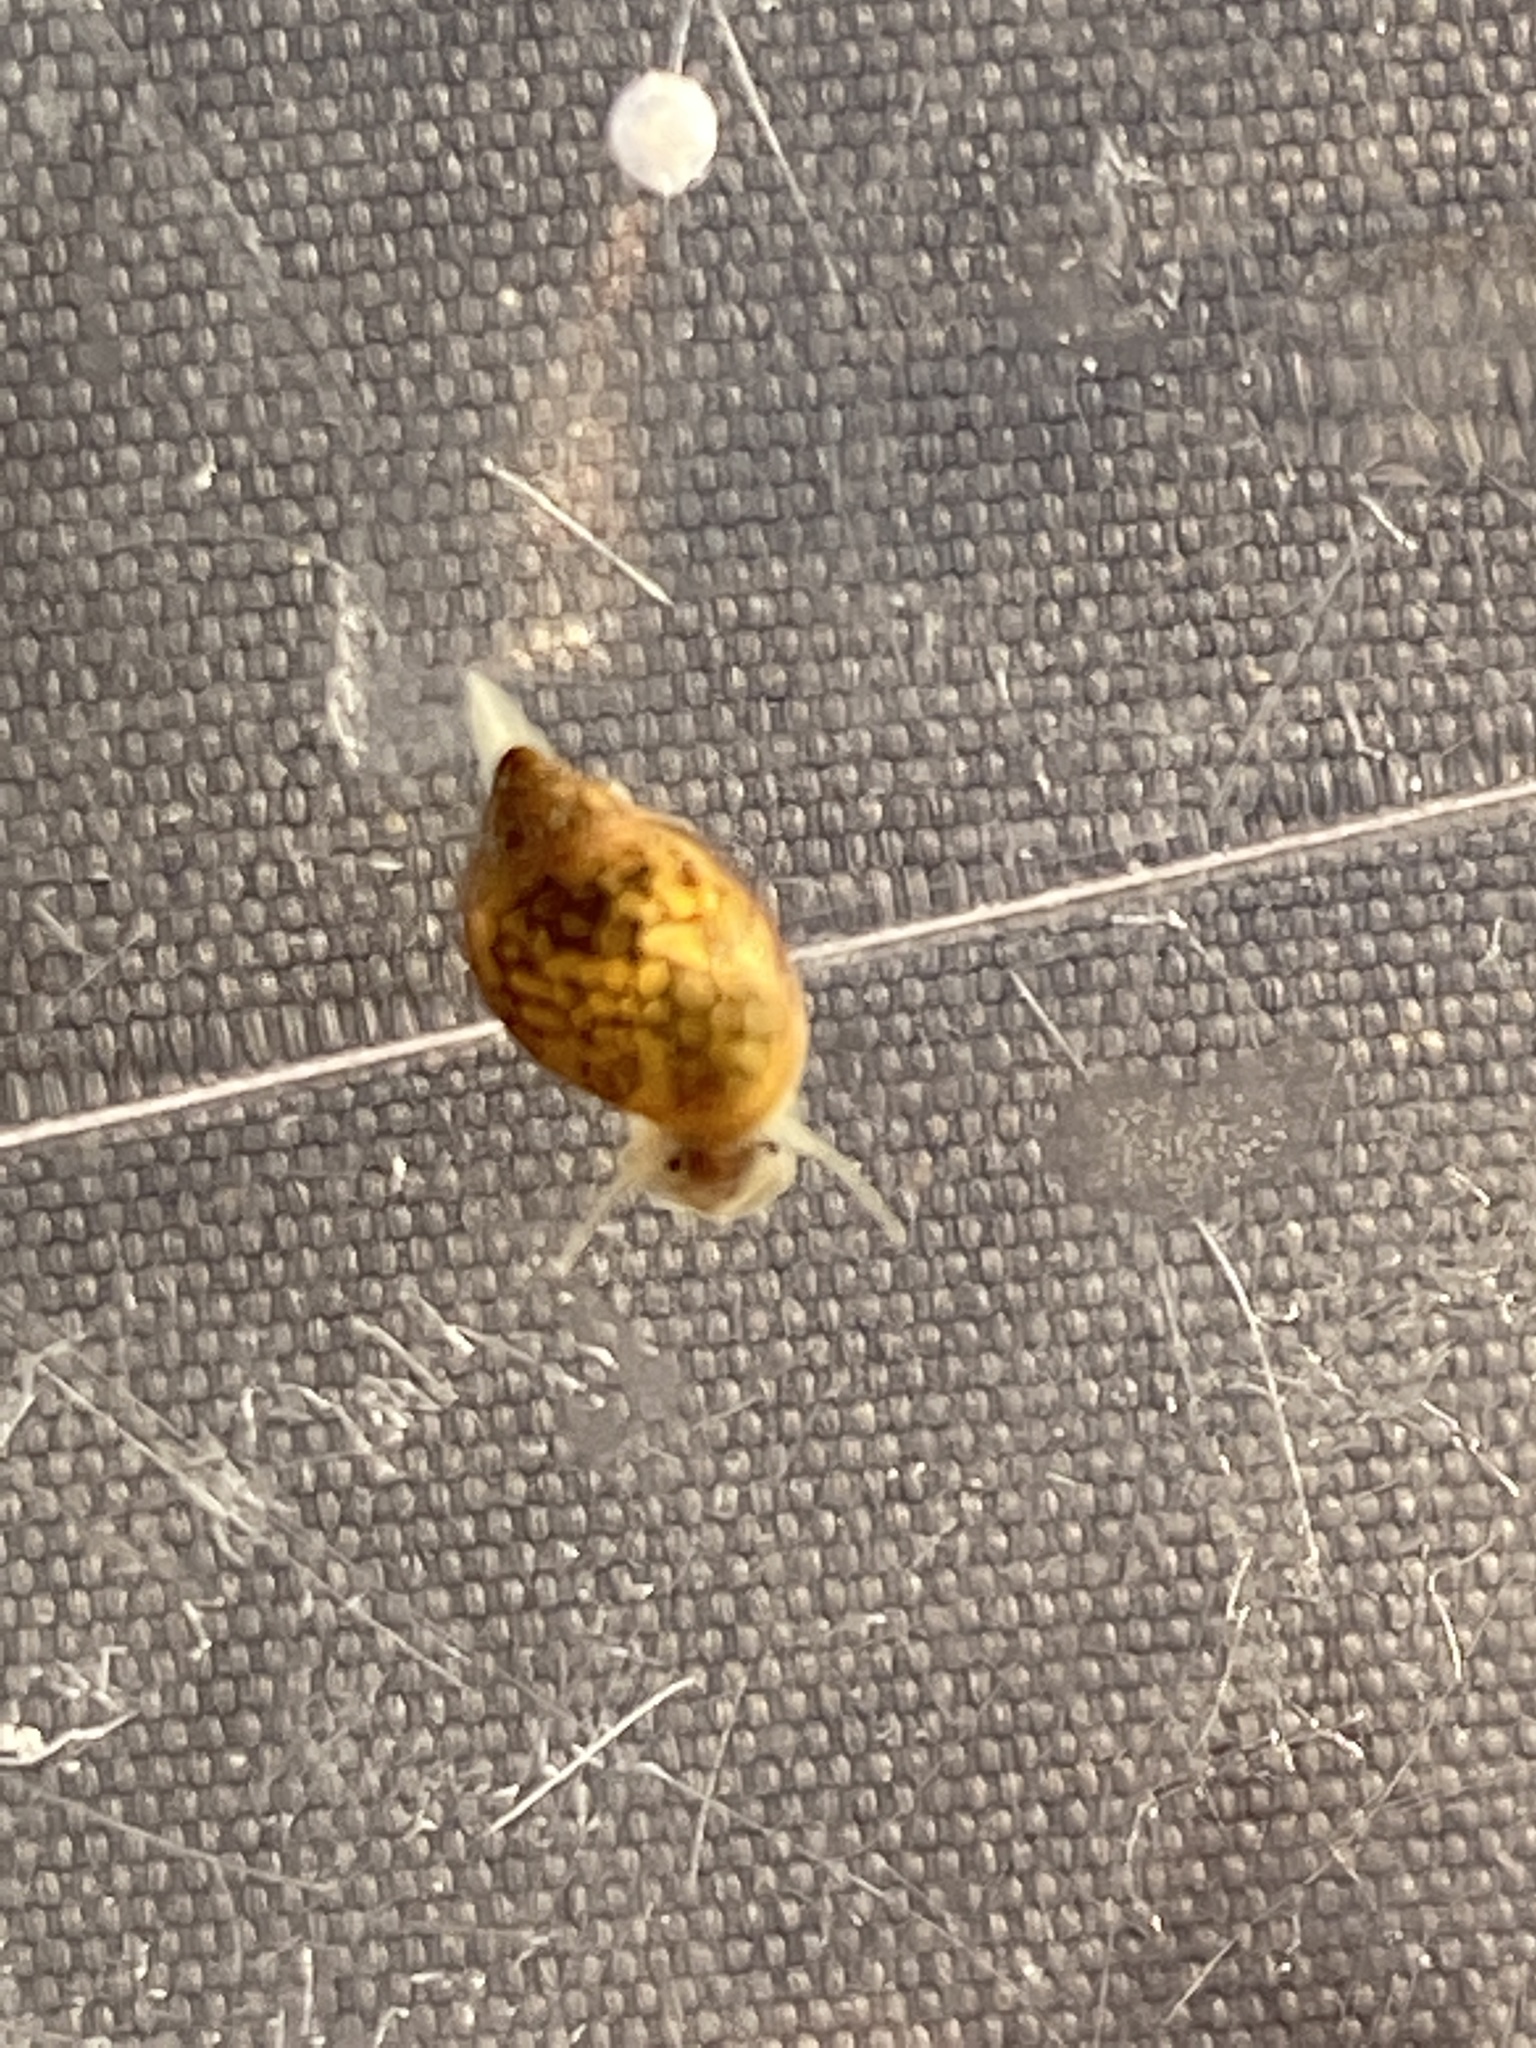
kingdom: Animalia
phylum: Mollusca
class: Gastropoda
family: Physidae
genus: Physella
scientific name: Physella acuta
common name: European physa
